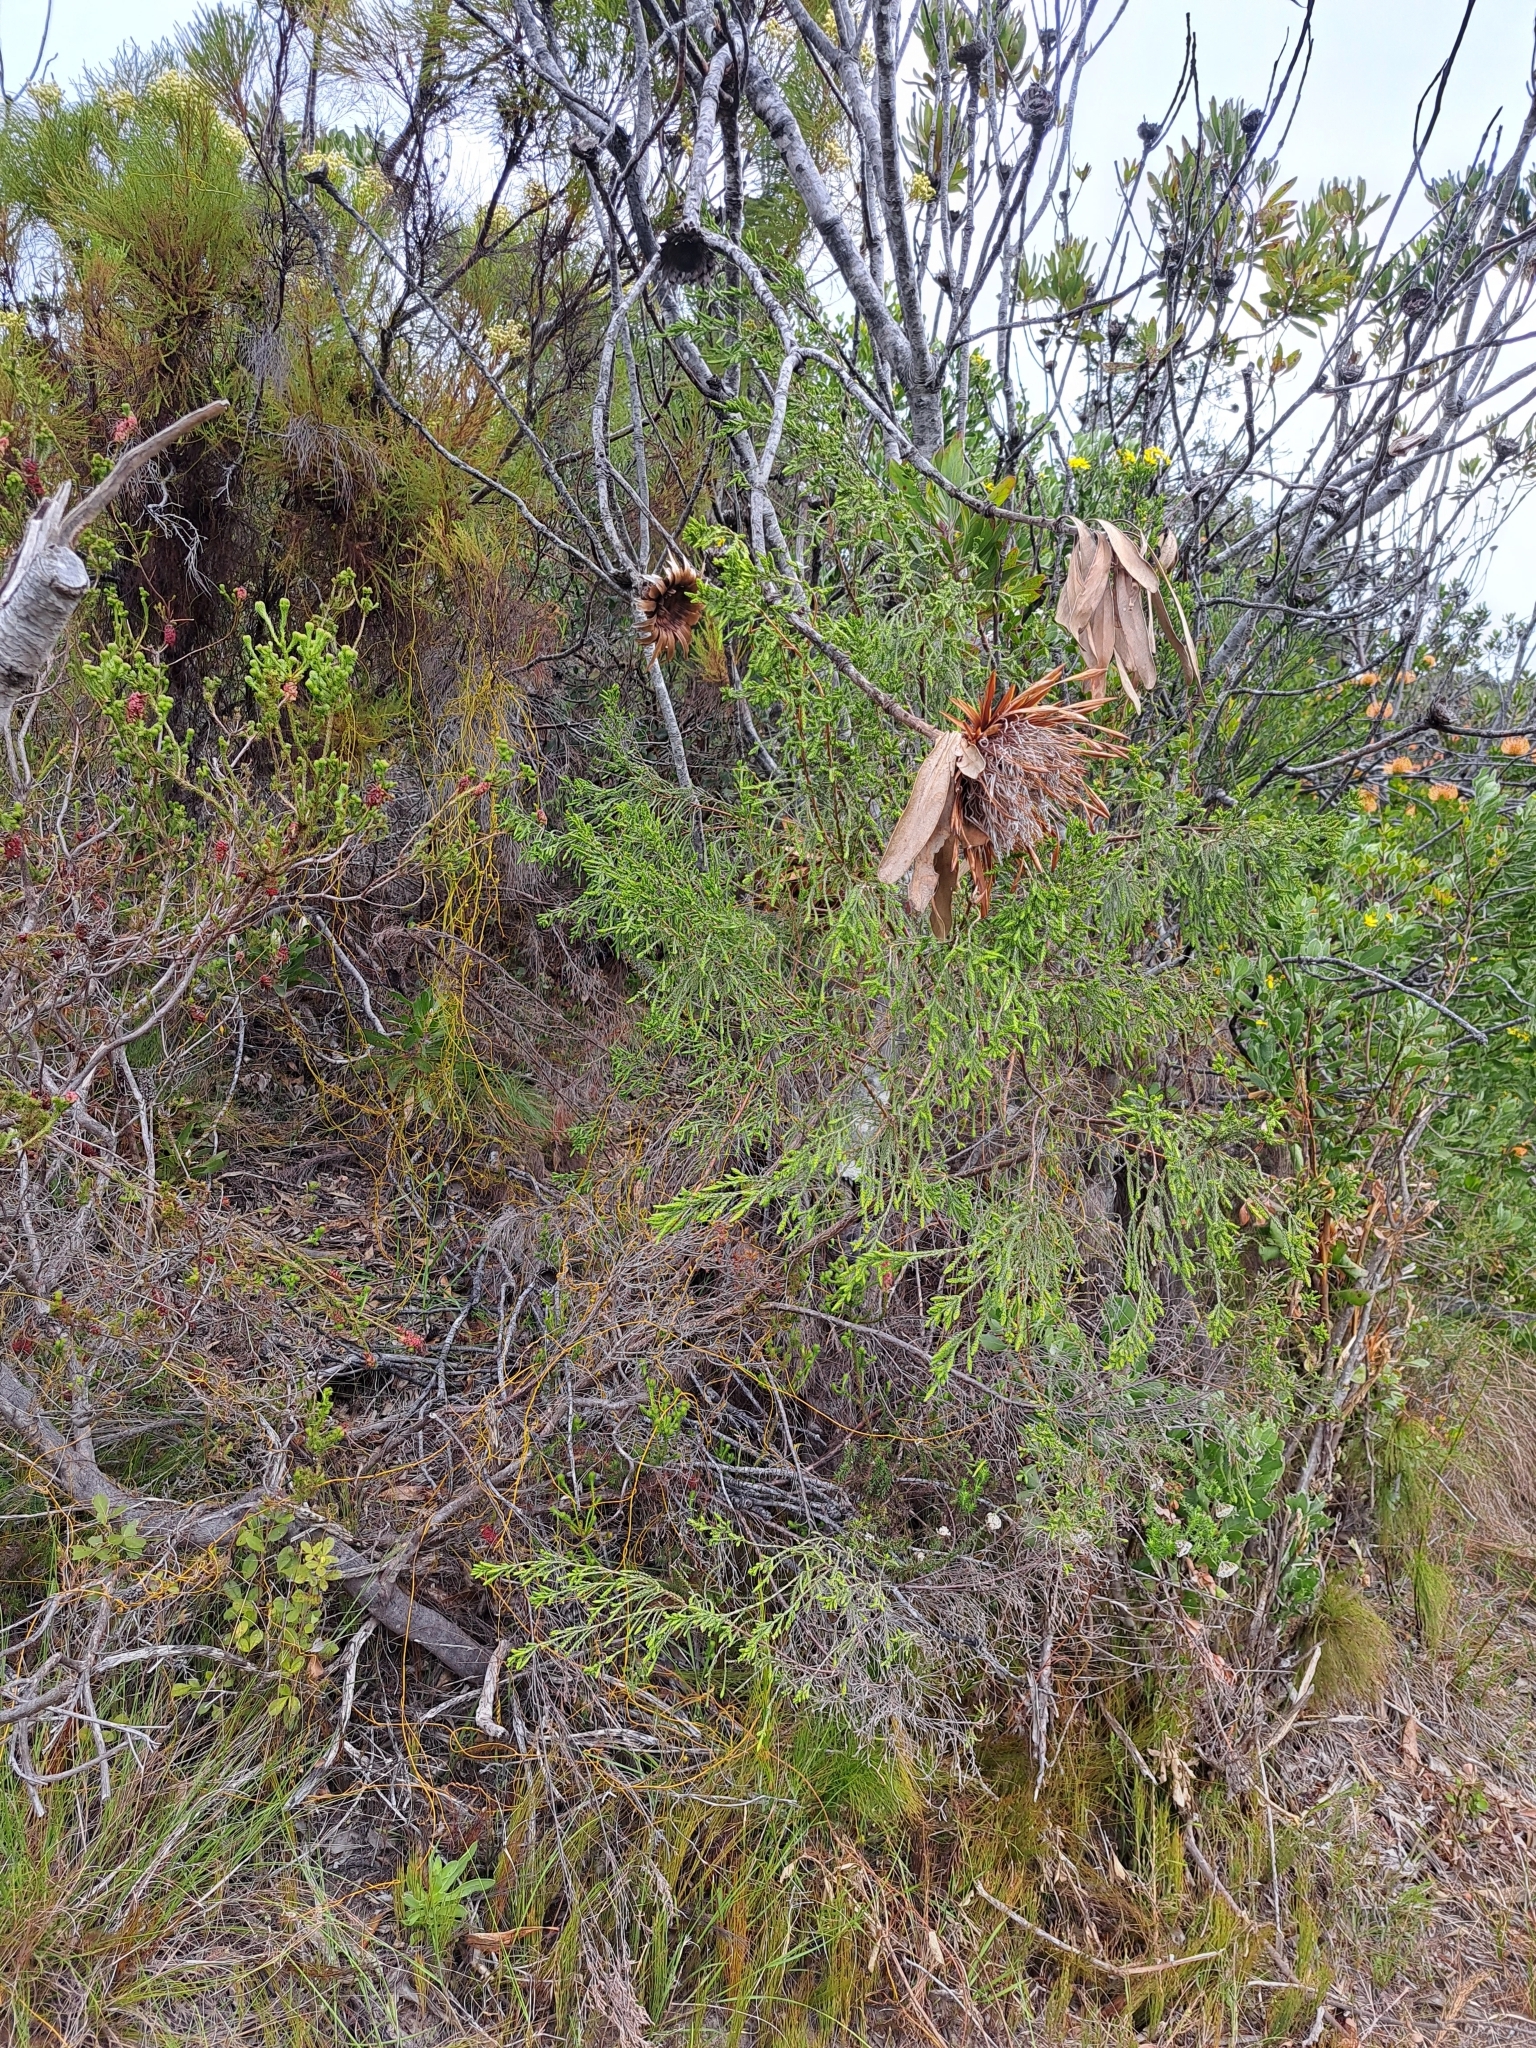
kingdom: Plantae
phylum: Tracheophyta
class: Magnoliopsida
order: Proteales
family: Proteaceae
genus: Protea
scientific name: Protea obtusifolia
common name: Bredasdorp sugarbush
